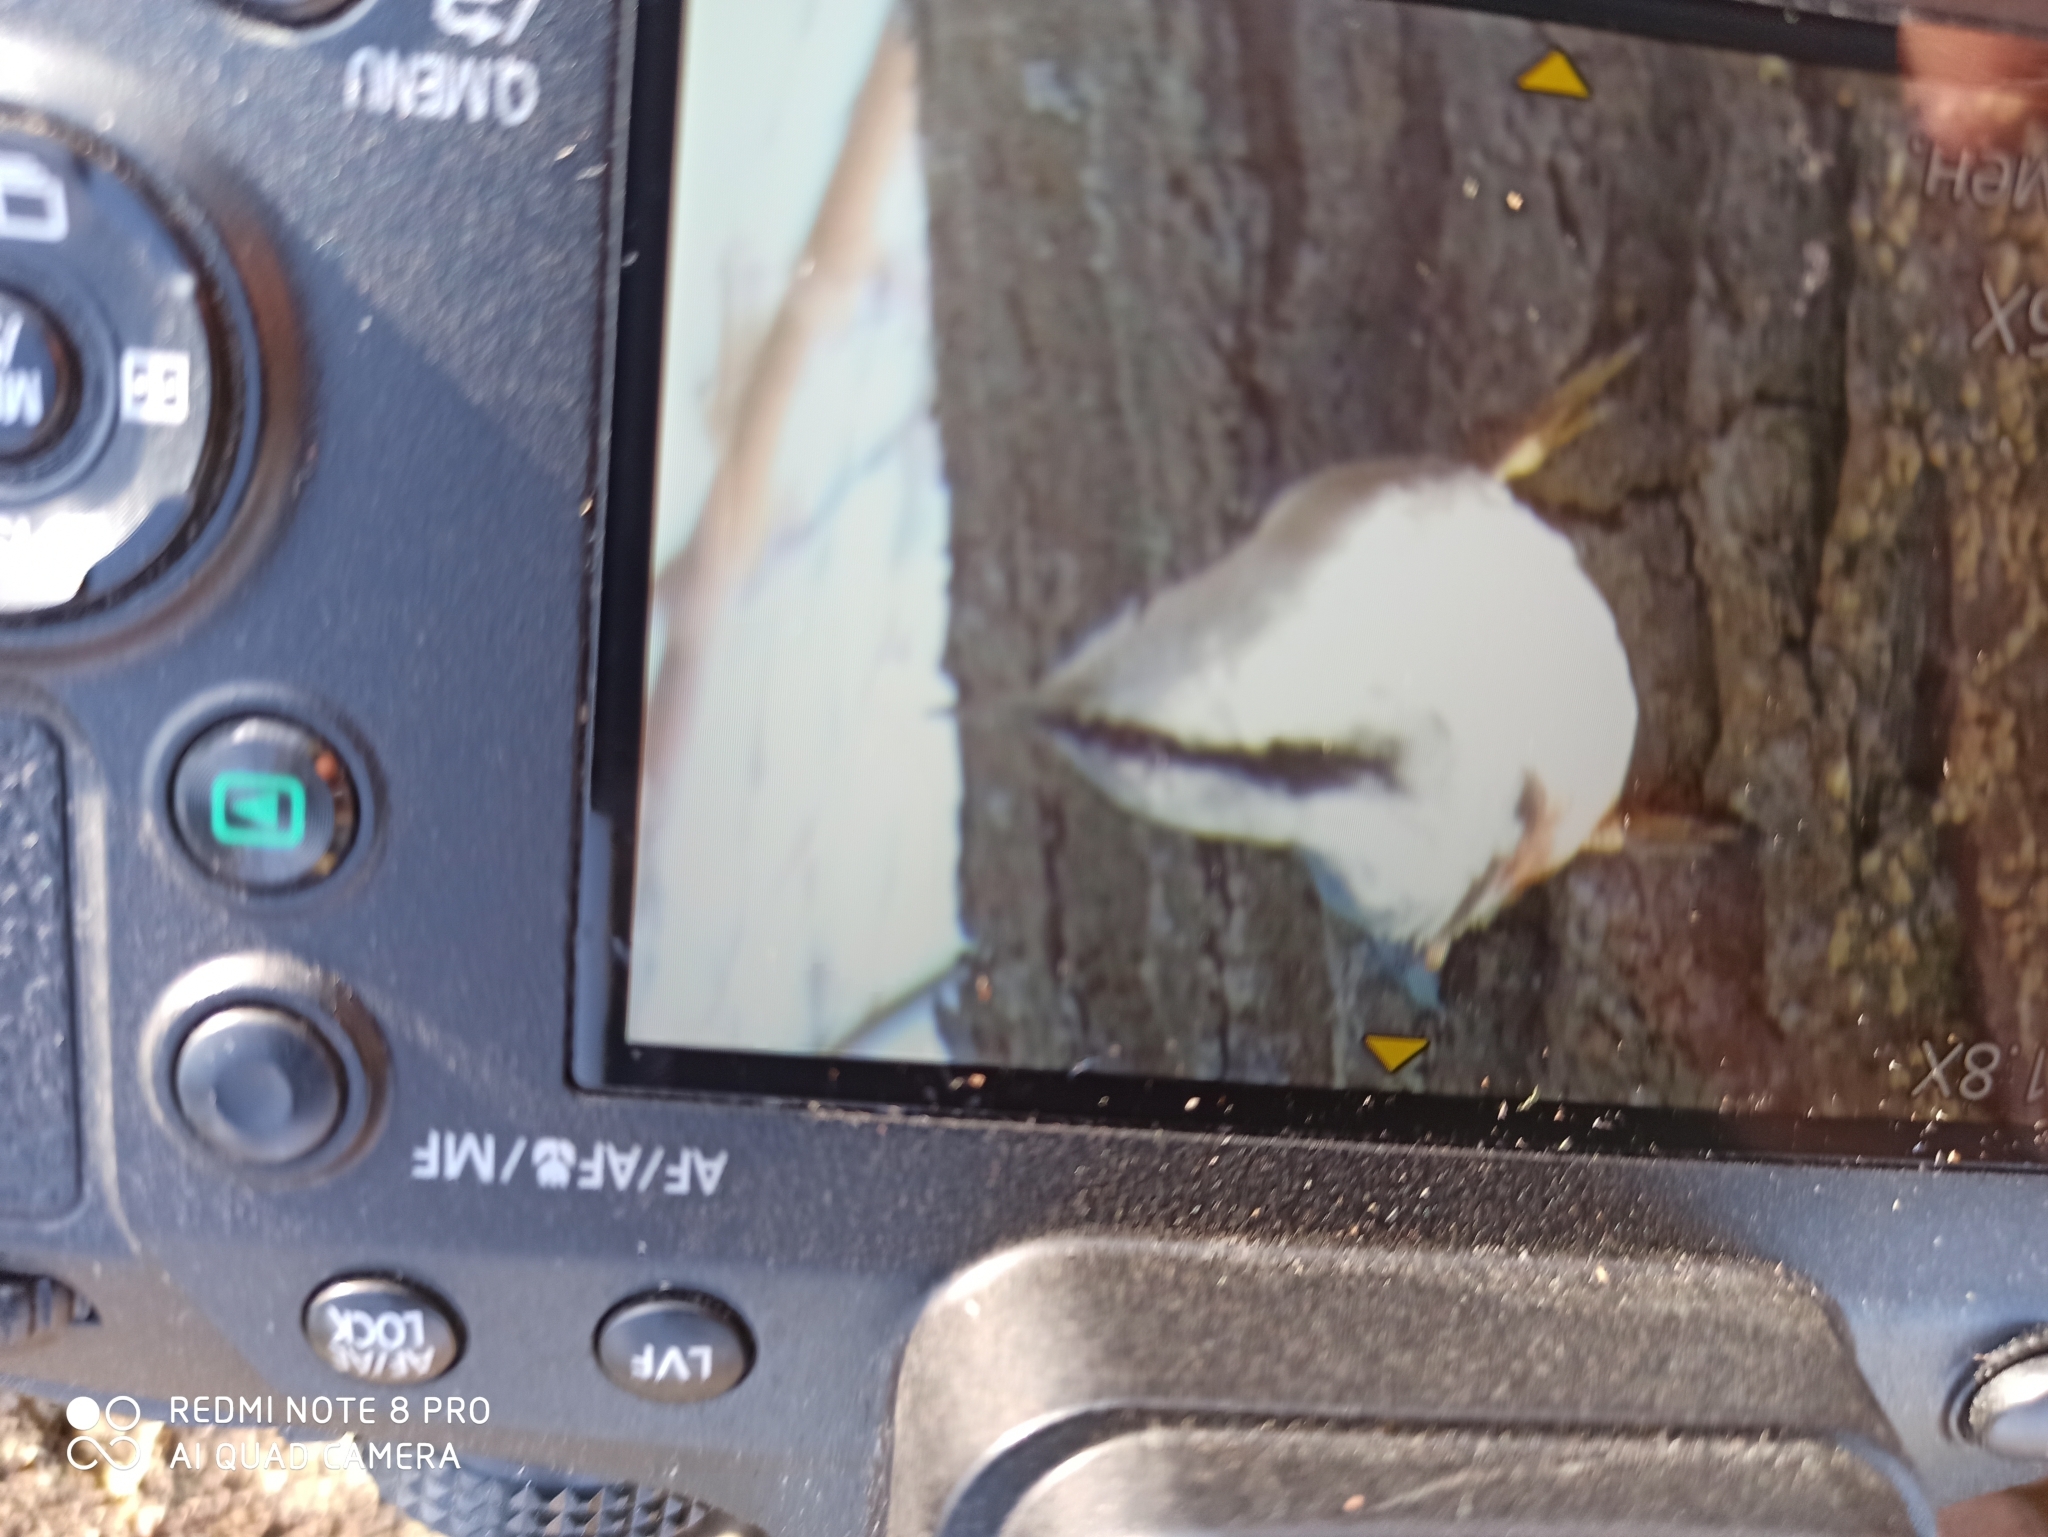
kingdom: Animalia
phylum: Chordata
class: Aves
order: Passeriformes
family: Sittidae
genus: Sitta
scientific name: Sitta europaea
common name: Eurasian nuthatch
